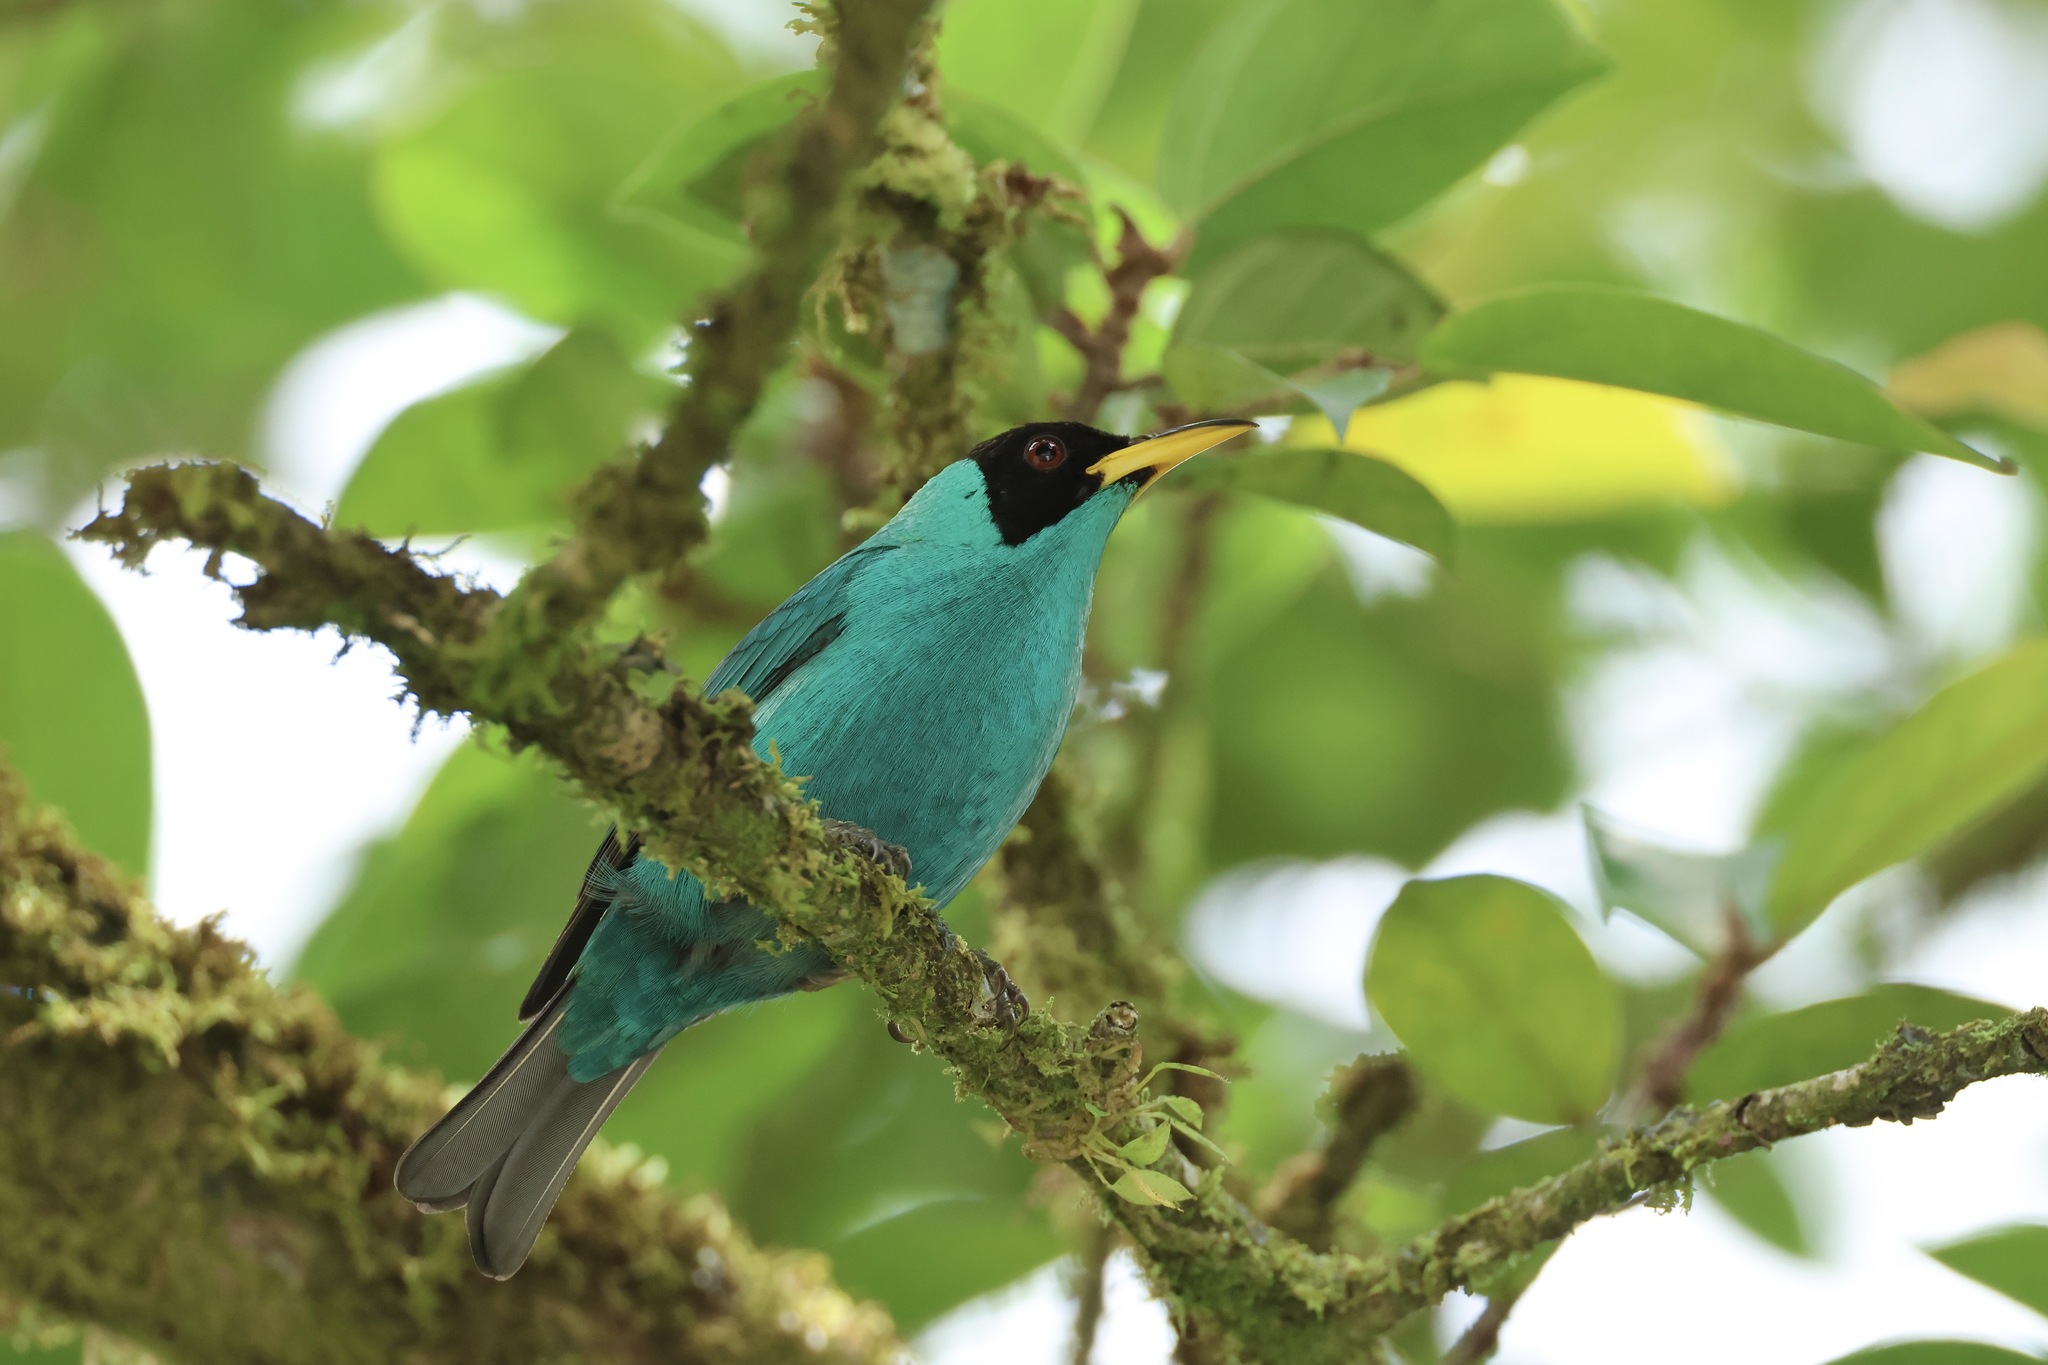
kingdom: Animalia
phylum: Chordata
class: Aves
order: Passeriformes
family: Thraupidae
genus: Chlorophanes
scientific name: Chlorophanes spiza
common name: Green honeycreeper
